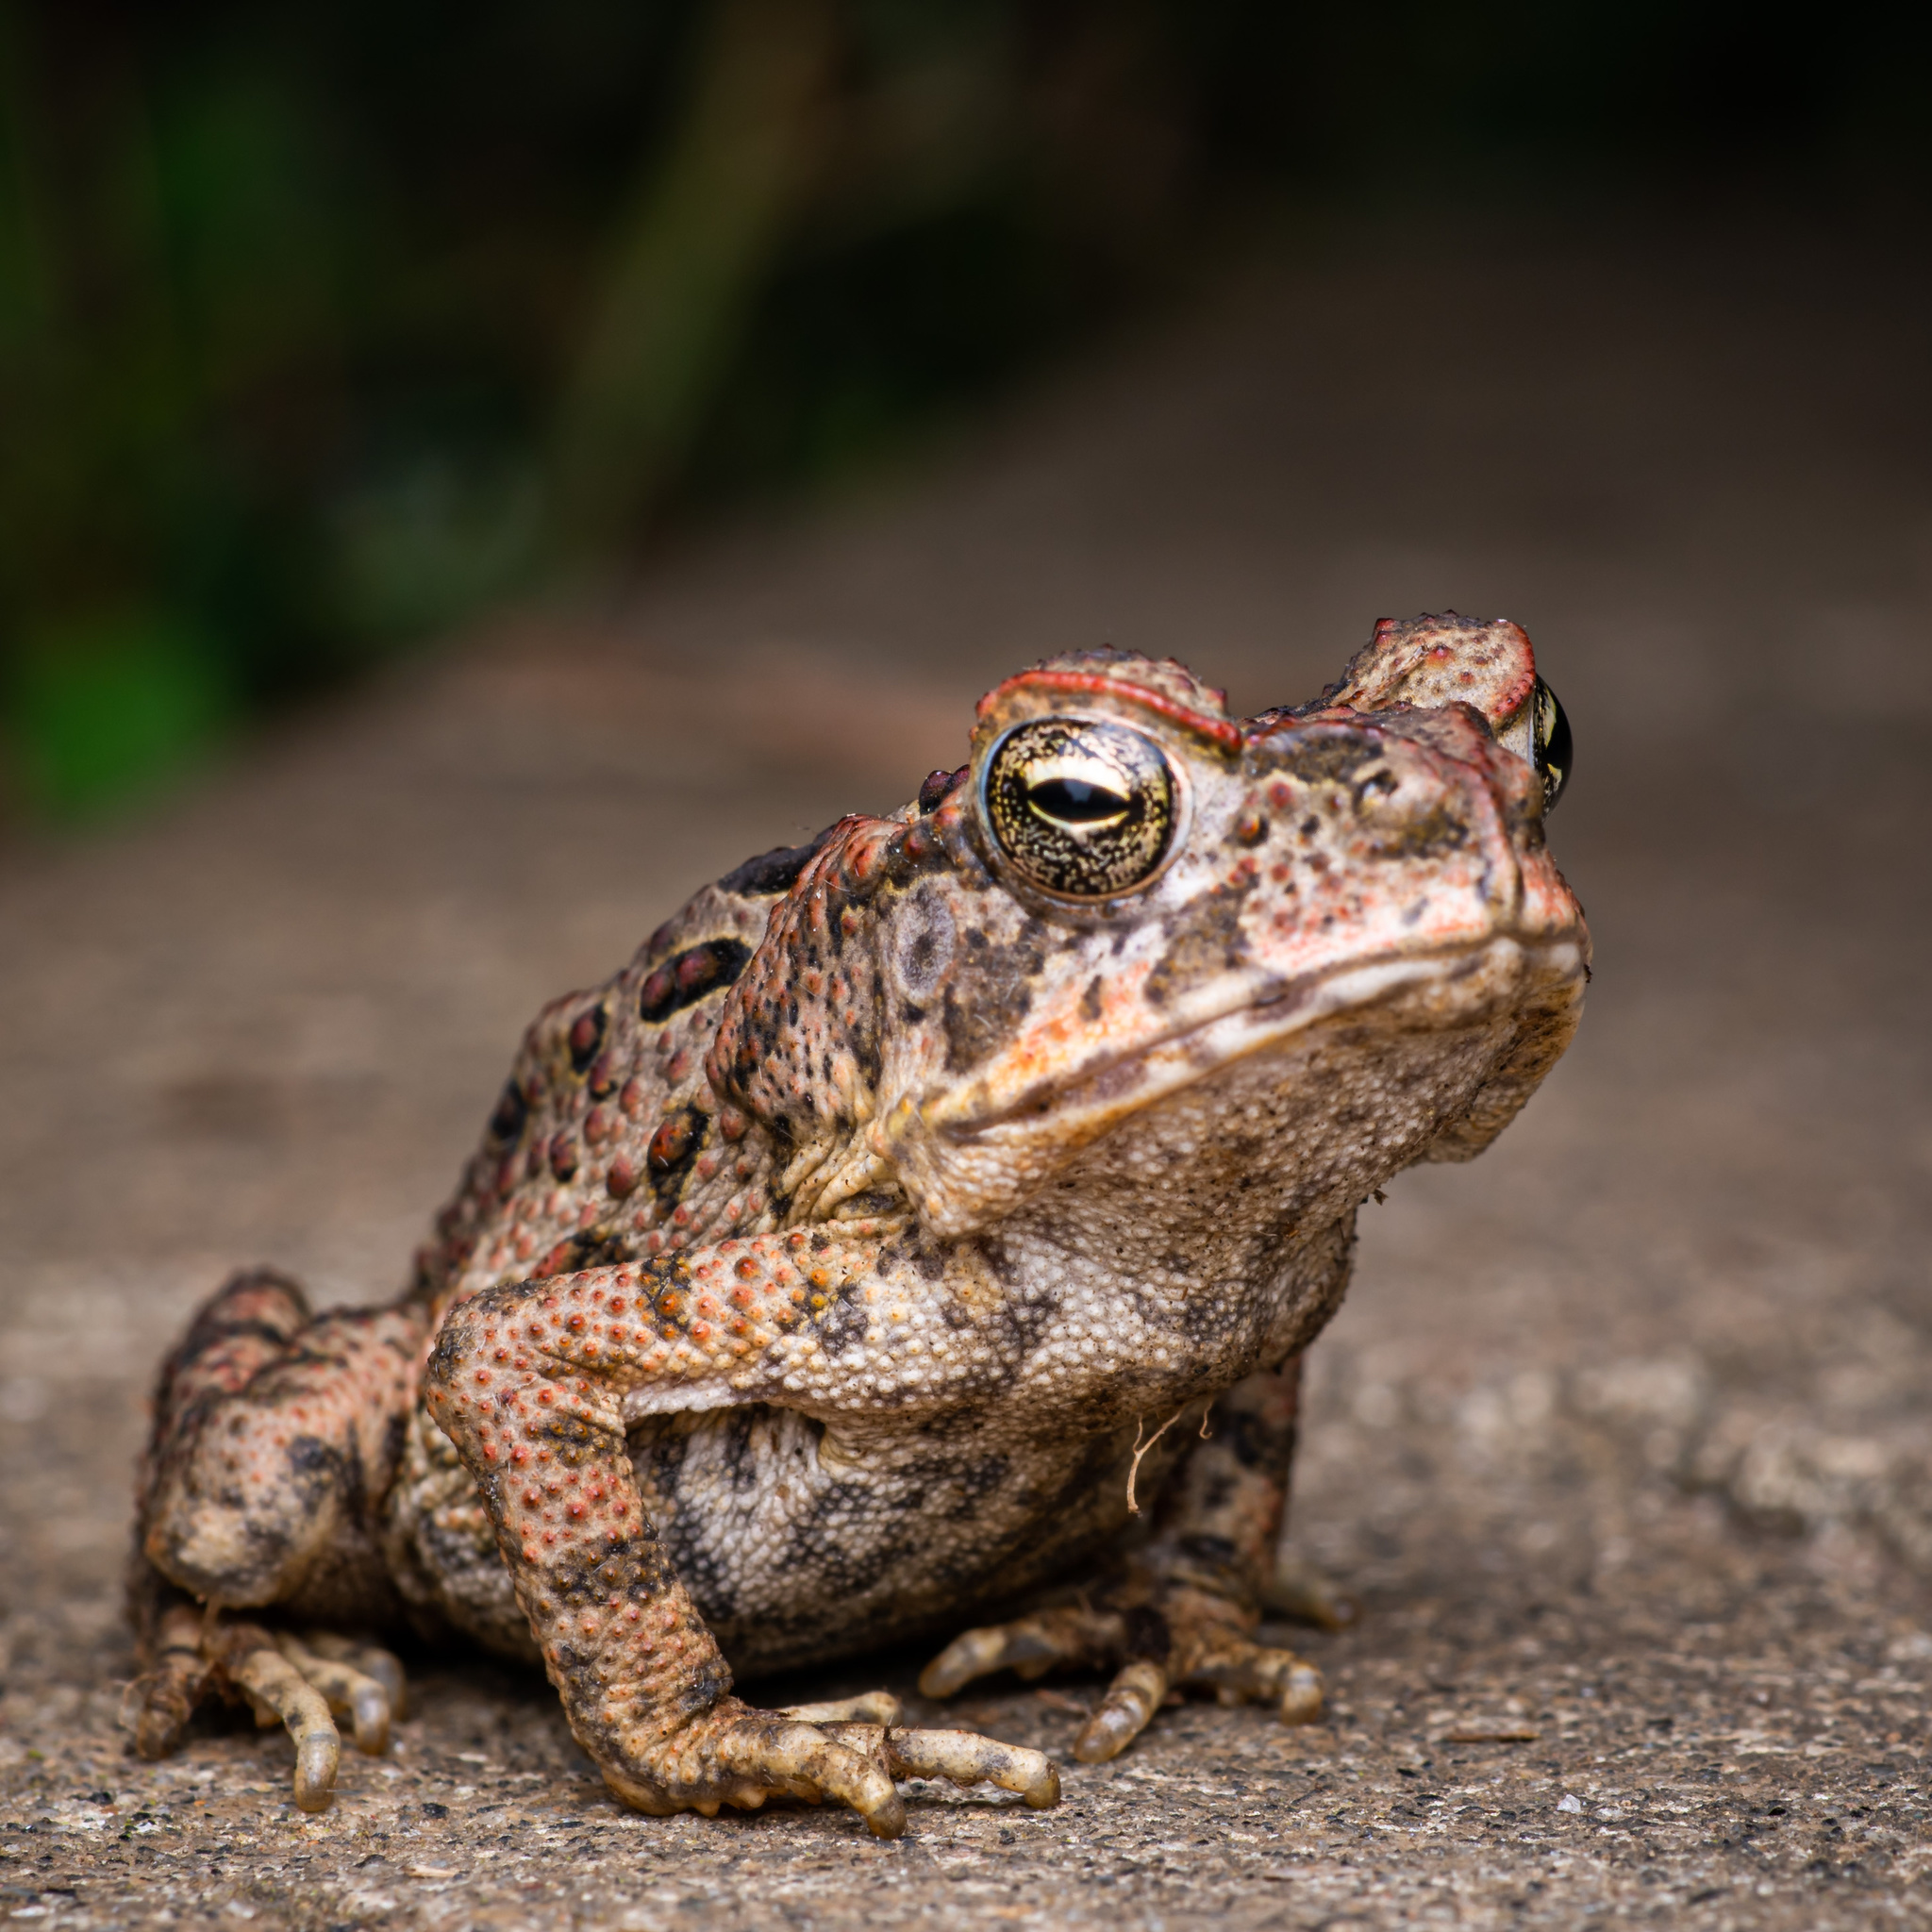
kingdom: Animalia
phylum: Chordata
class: Amphibia
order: Anura
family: Bufonidae
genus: Rhinella
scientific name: Rhinella marina
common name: Cane toad
